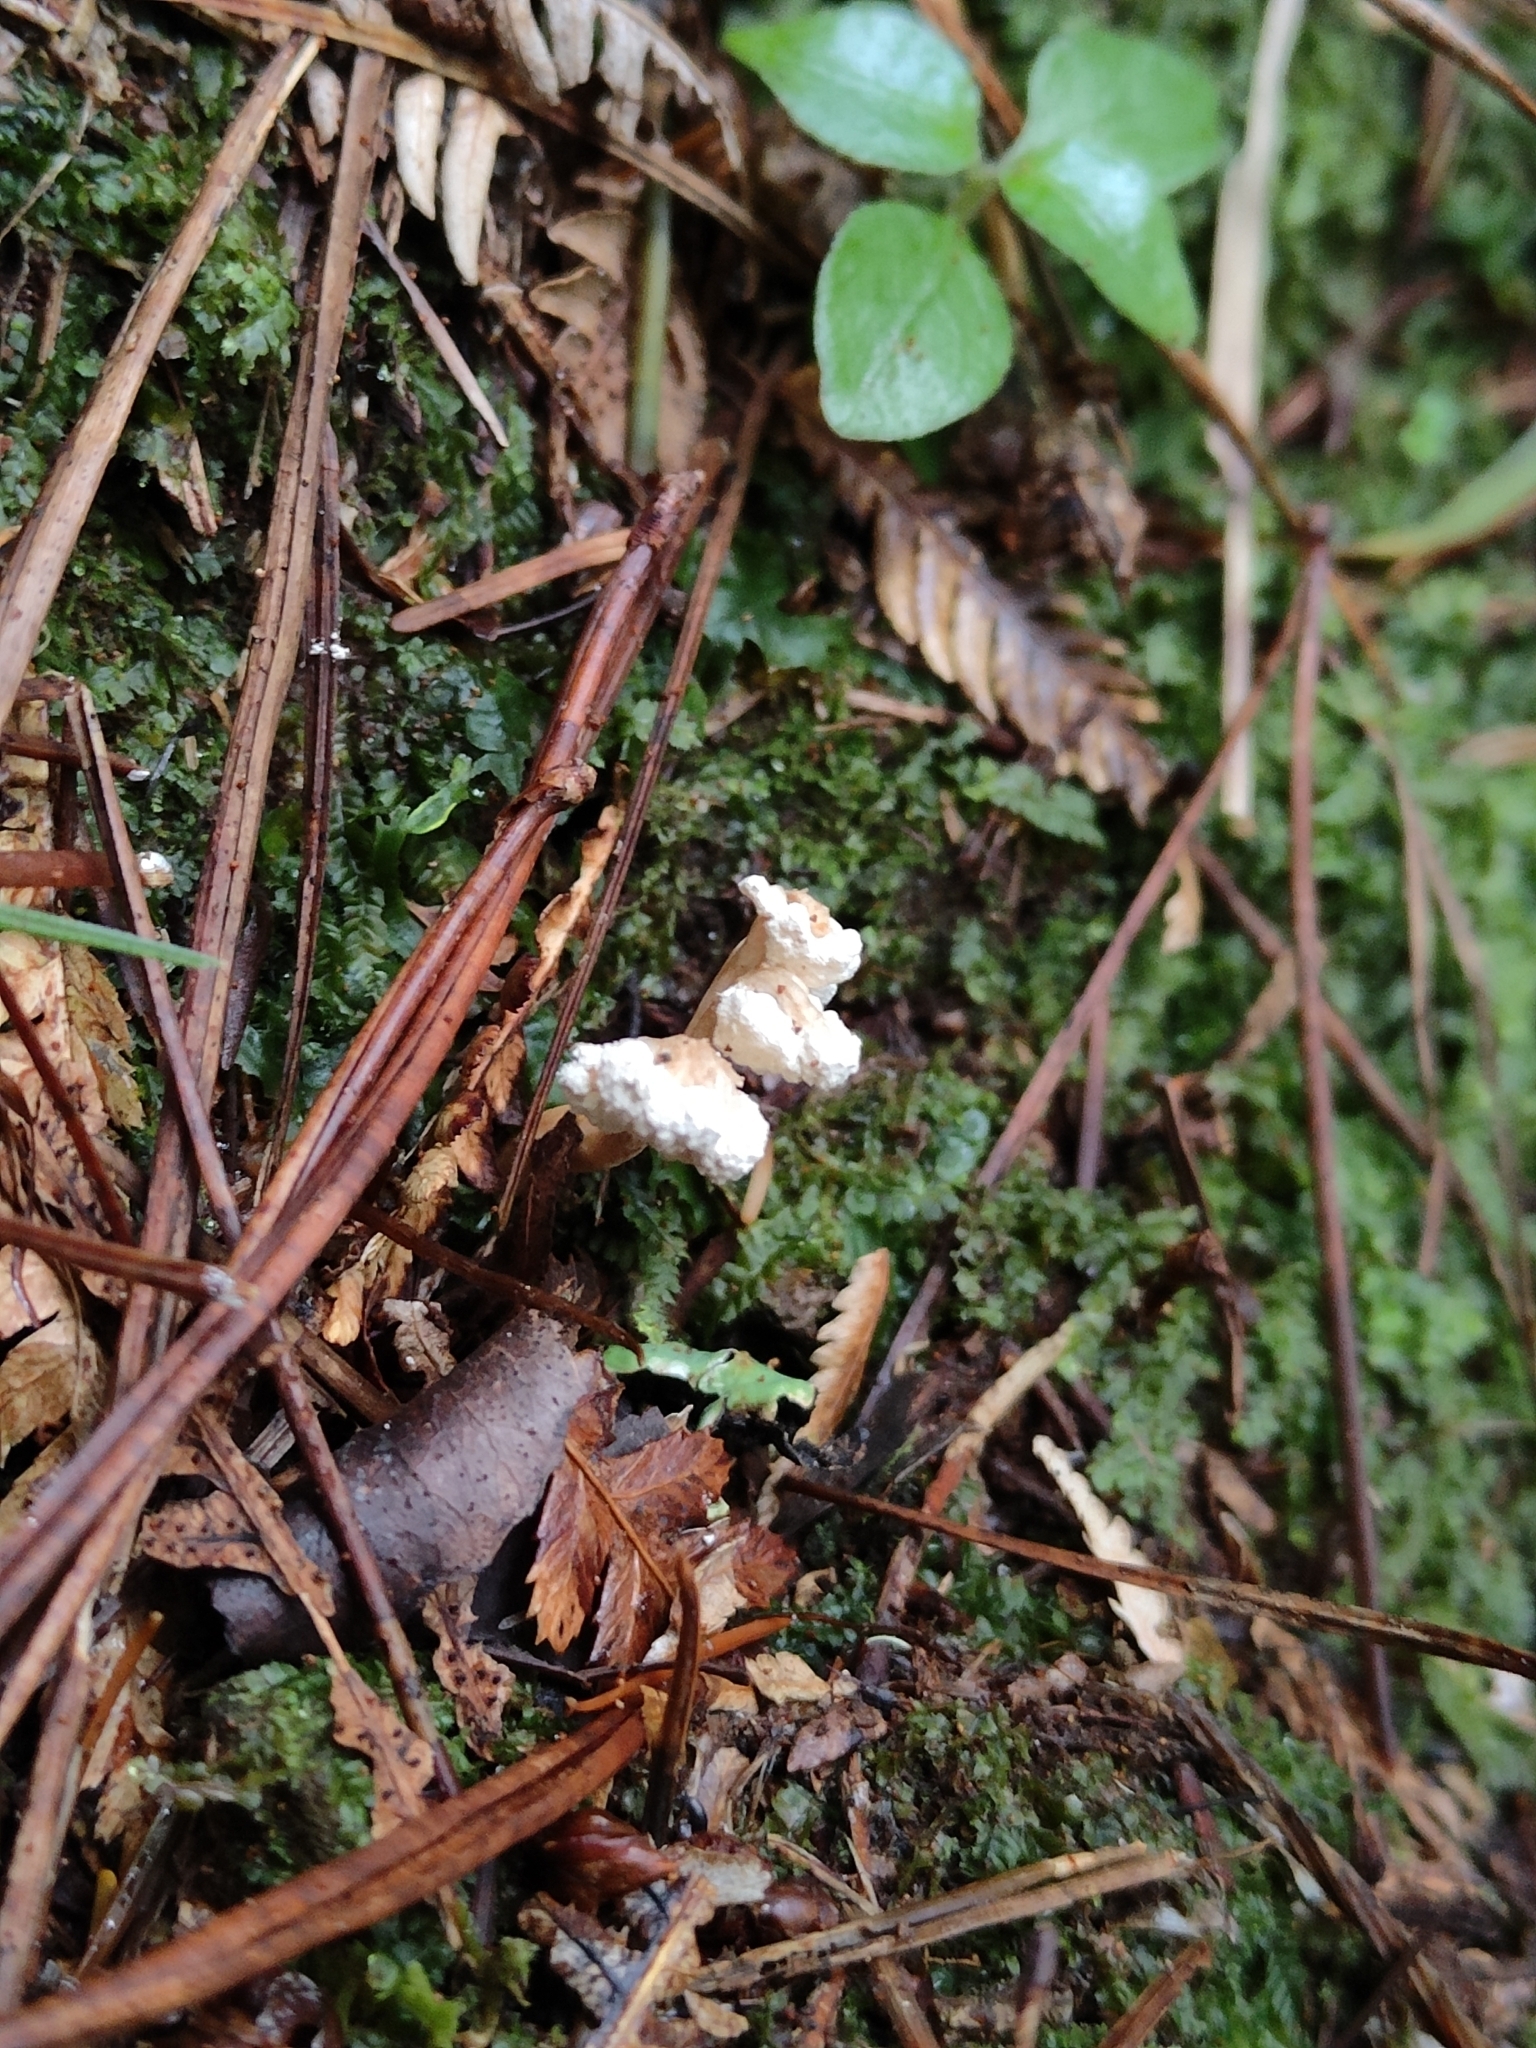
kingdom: Fungi
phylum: Ascomycota
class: Sordariomycetes
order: Hypocreales
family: Cordycipitaceae
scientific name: Cordycipitaceae
